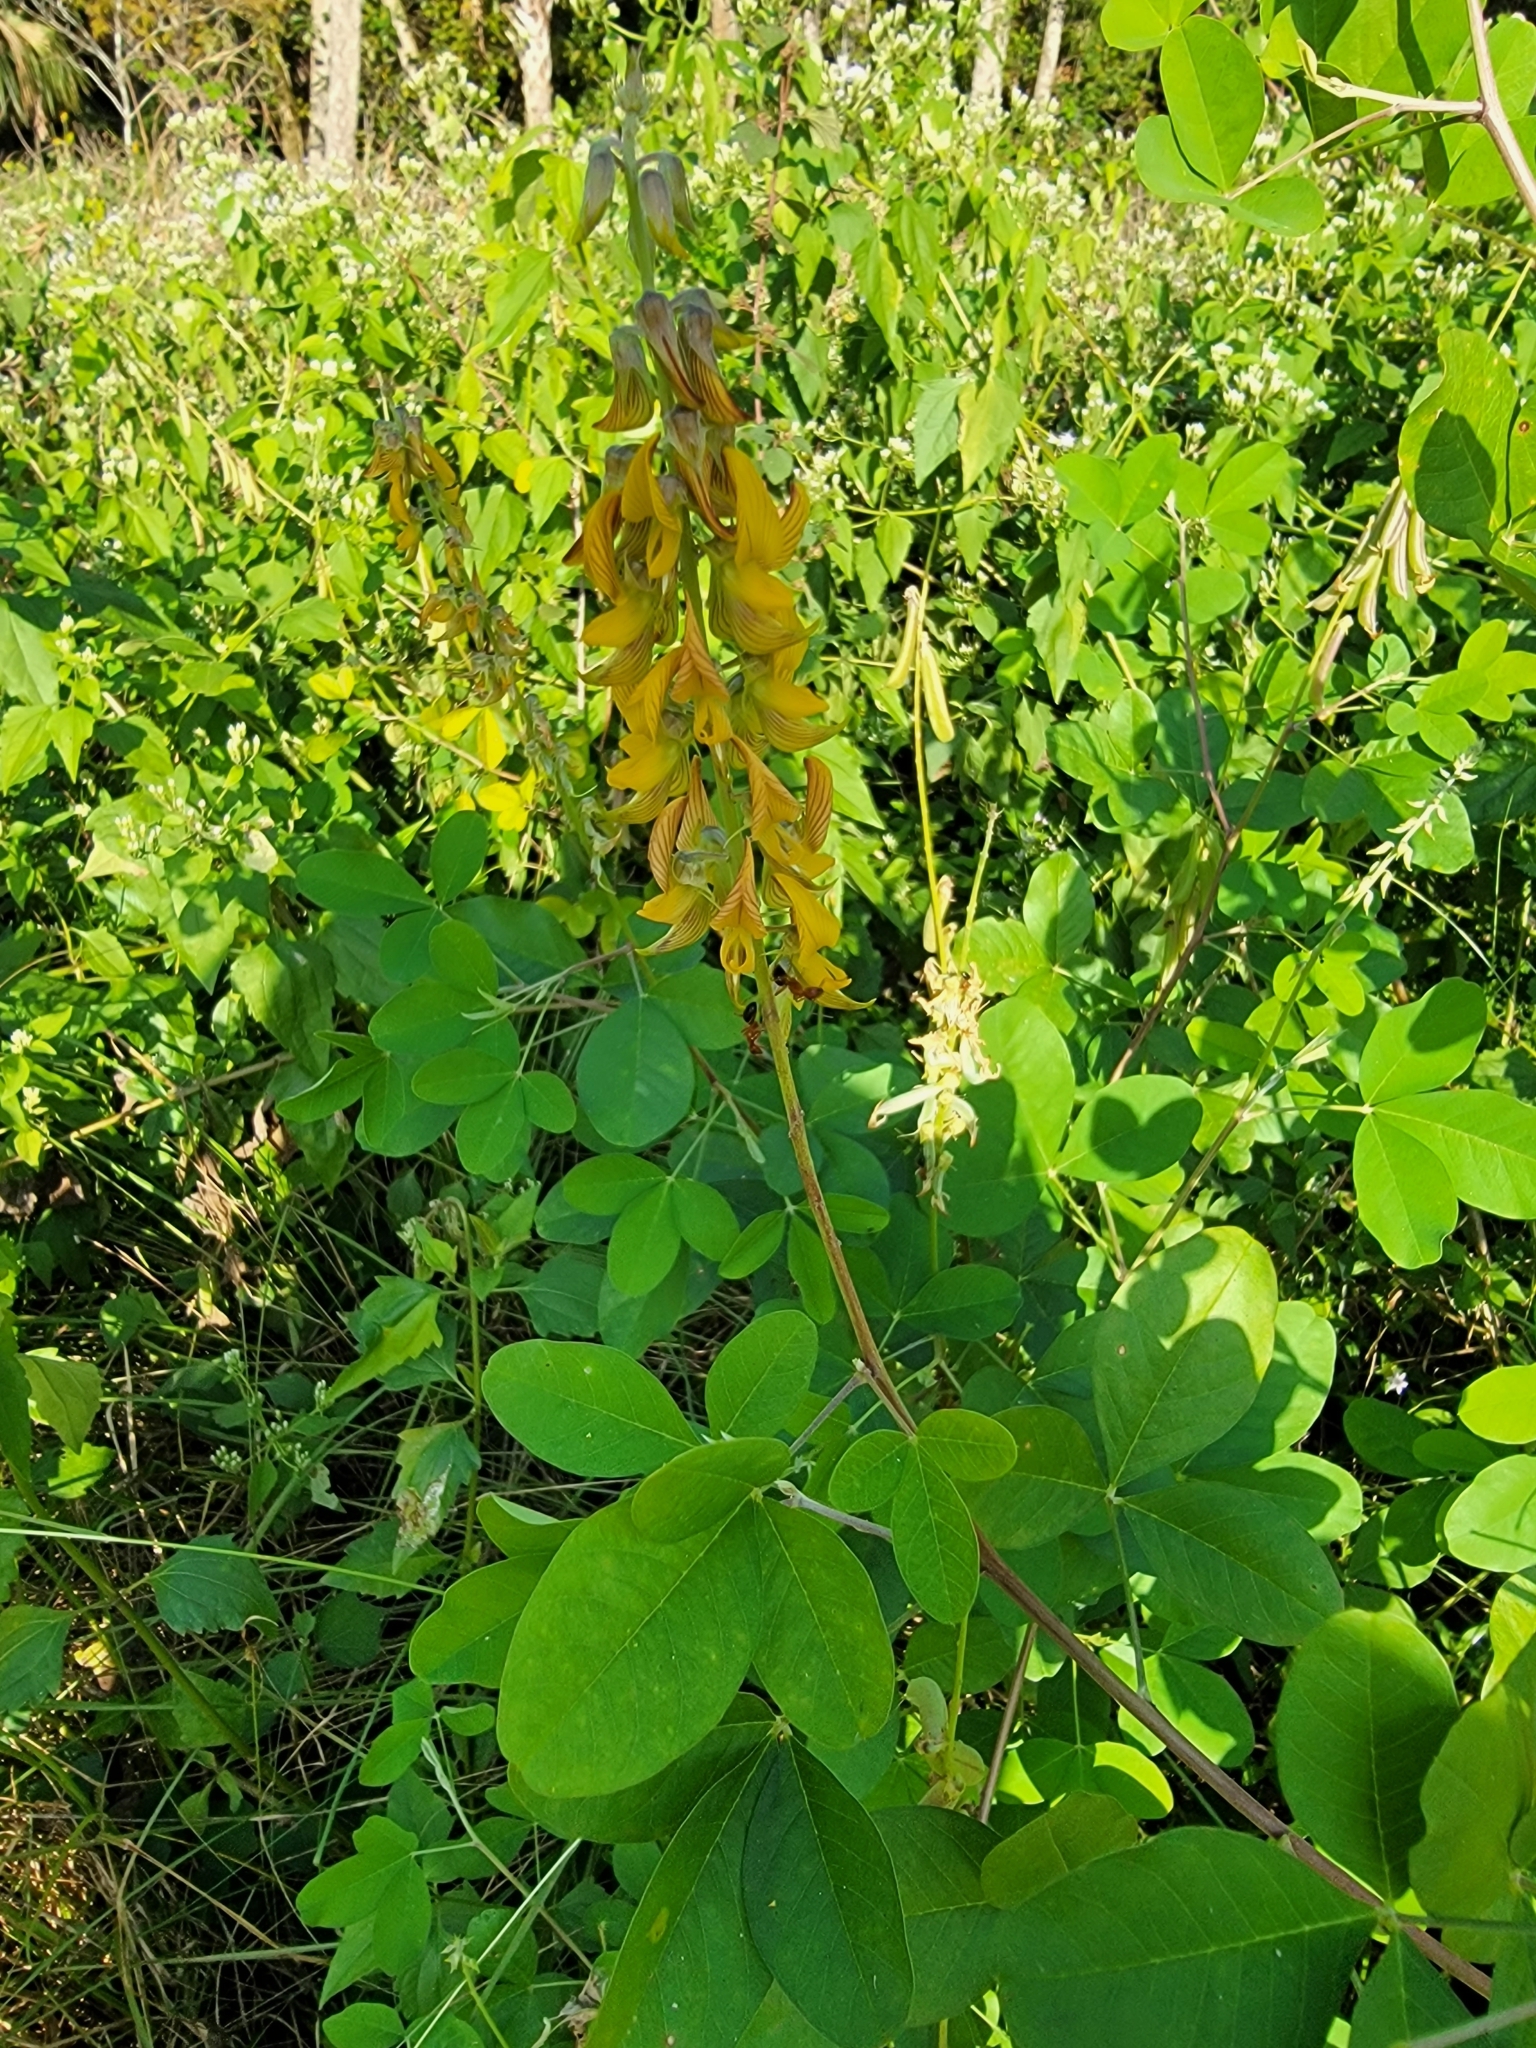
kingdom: Plantae
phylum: Tracheophyta
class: Magnoliopsida
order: Fabales
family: Fabaceae
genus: Crotalaria
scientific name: Crotalaria pallida
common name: Smooth rattlebox
